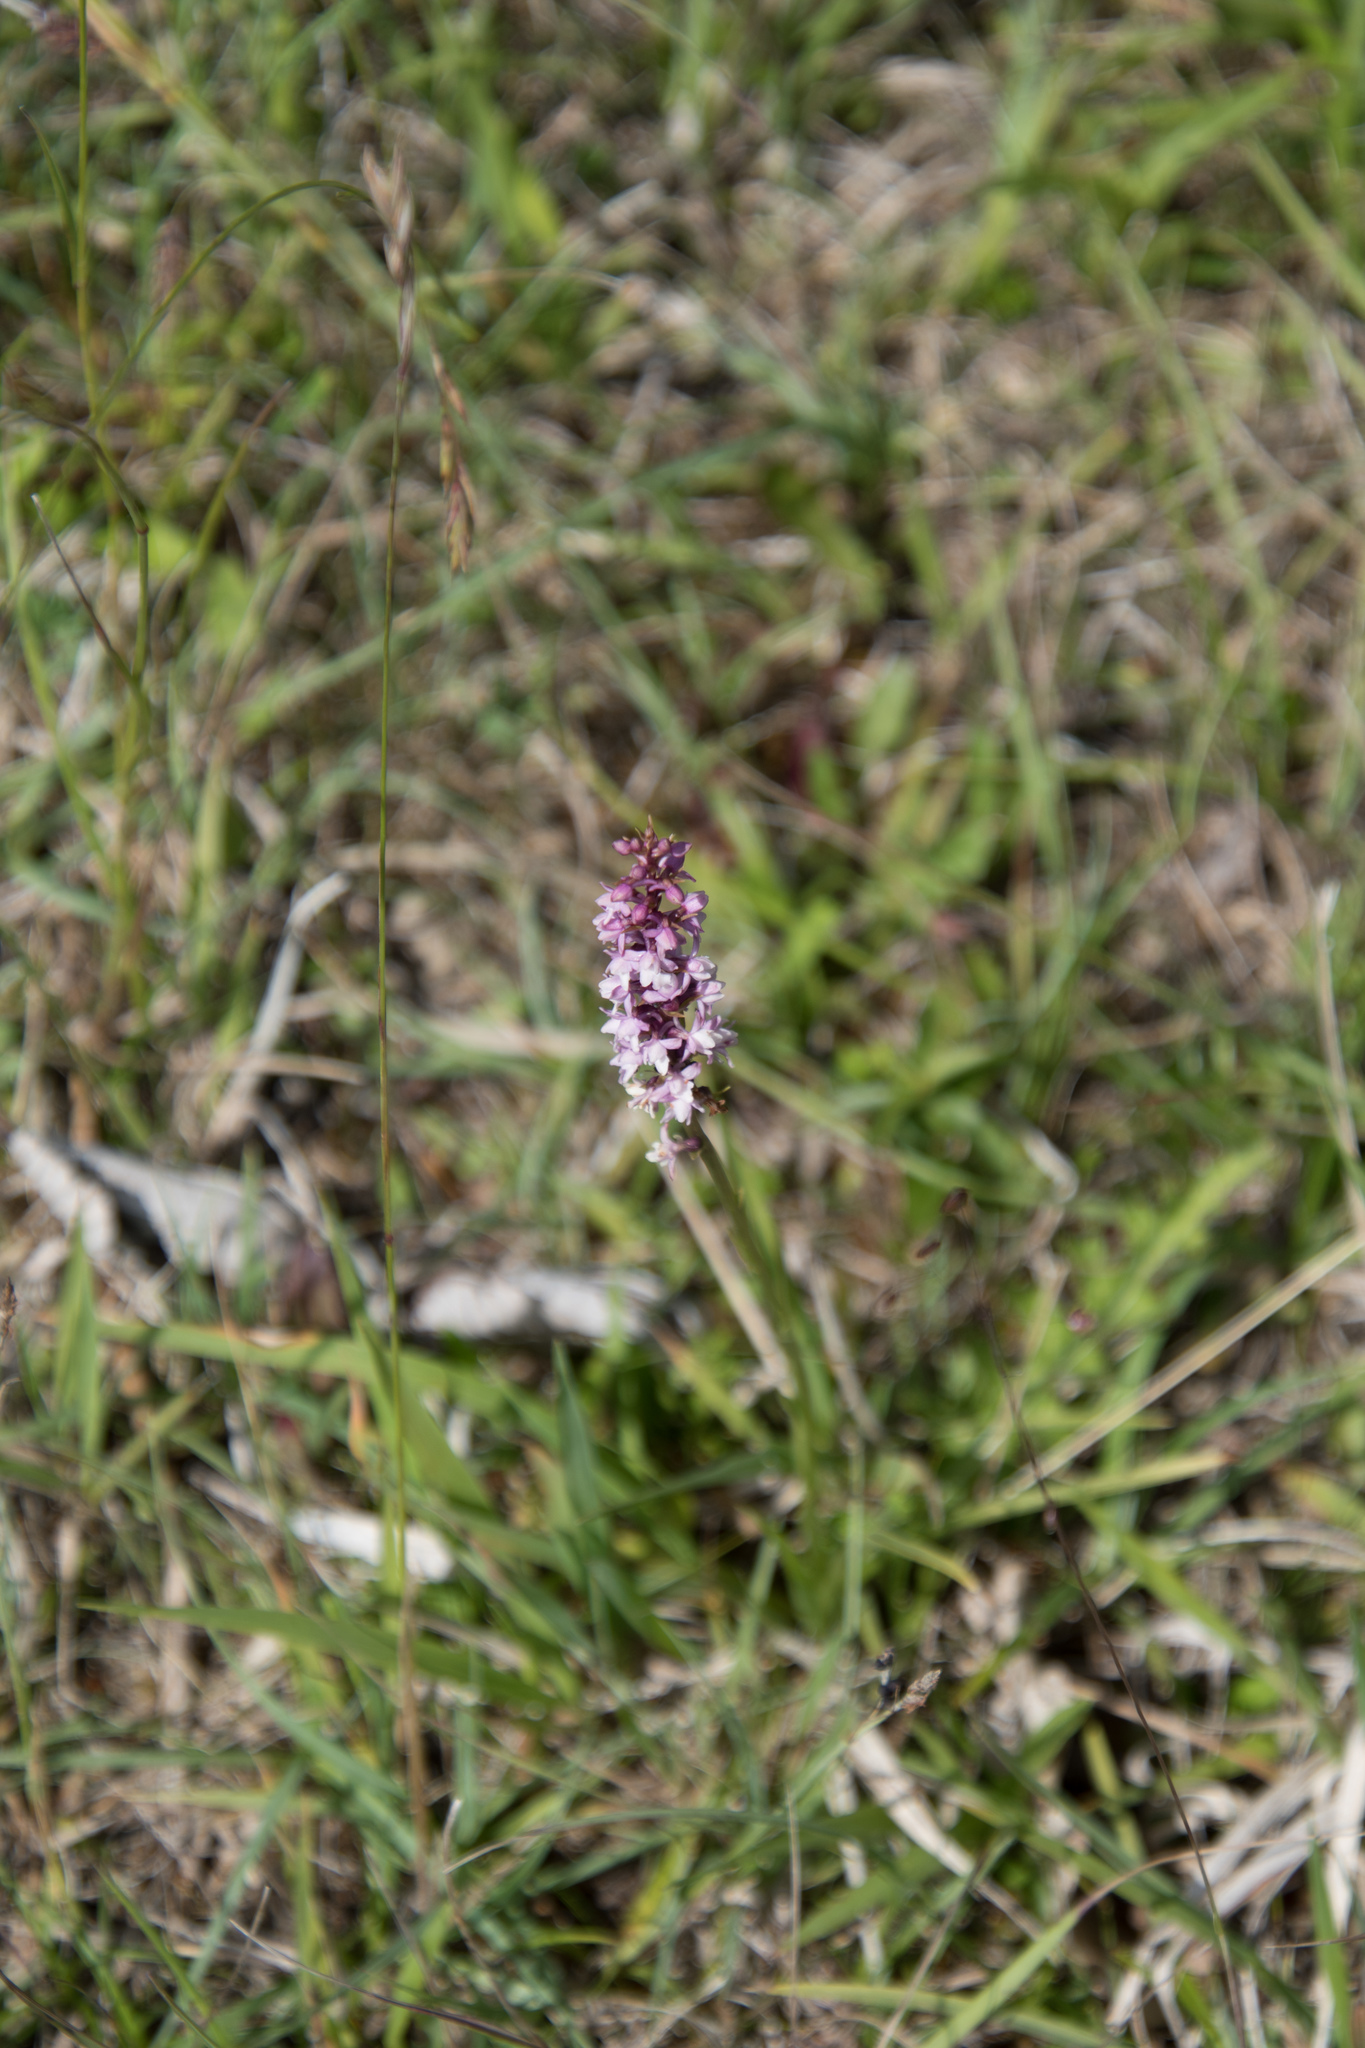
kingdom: Plantae
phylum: Tracheophyta
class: Liliopsida
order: Asparagales
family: Orchidaceae
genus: Gymnadenia
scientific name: Gymnadenia odoratissima
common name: Scented gymnadenia
